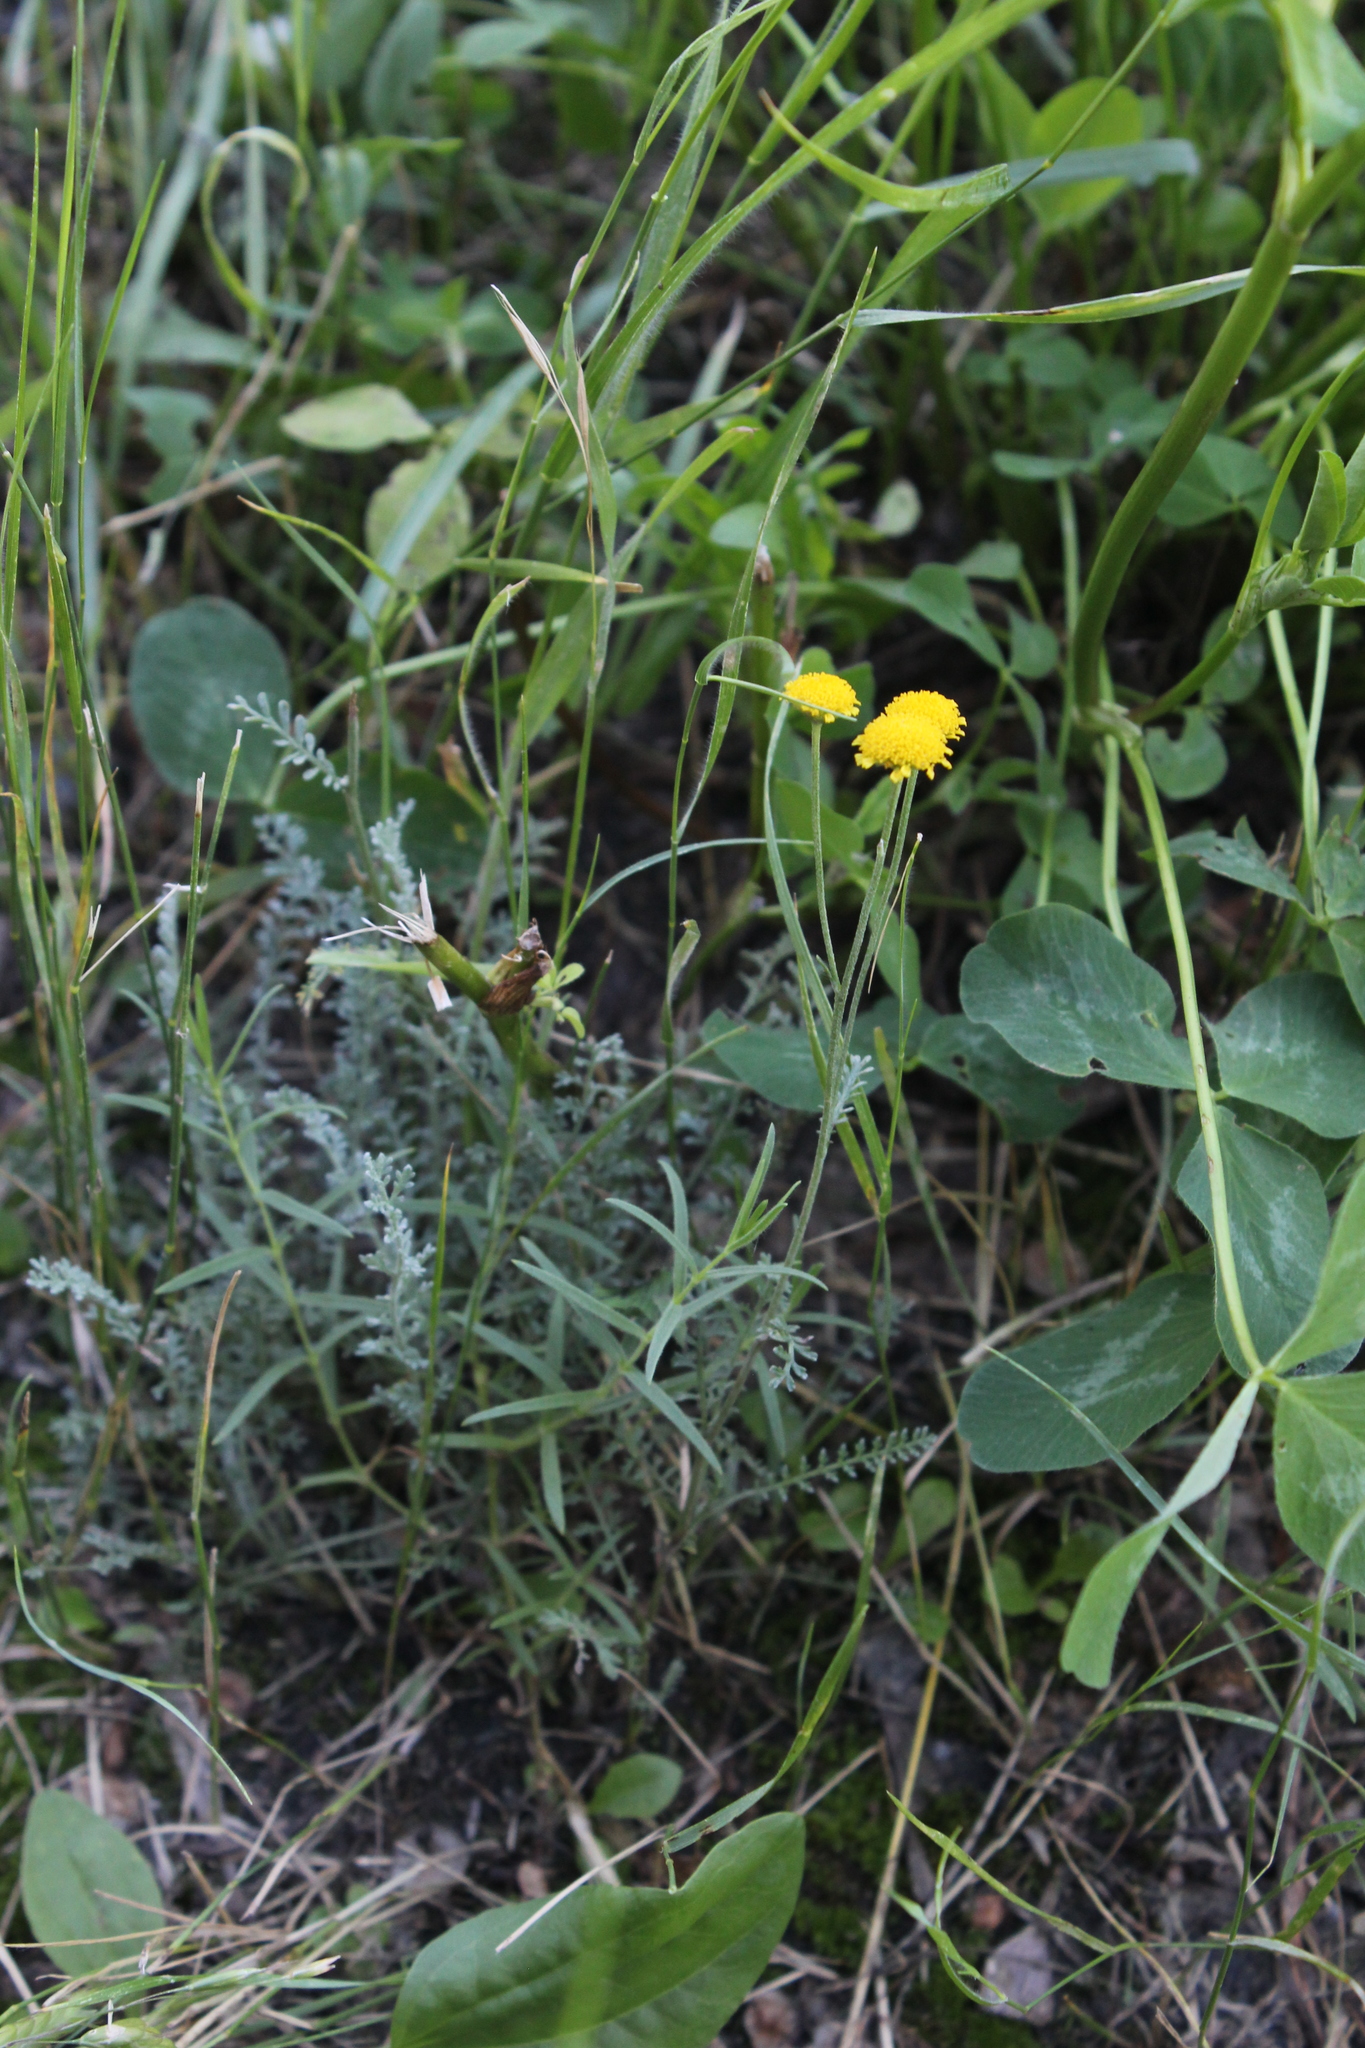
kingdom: Plantae
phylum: Tracheophyta
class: Magnoliopsida
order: Asterales
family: Asteraceae
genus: Tanacetum
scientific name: Tanacetum achilleifolium
